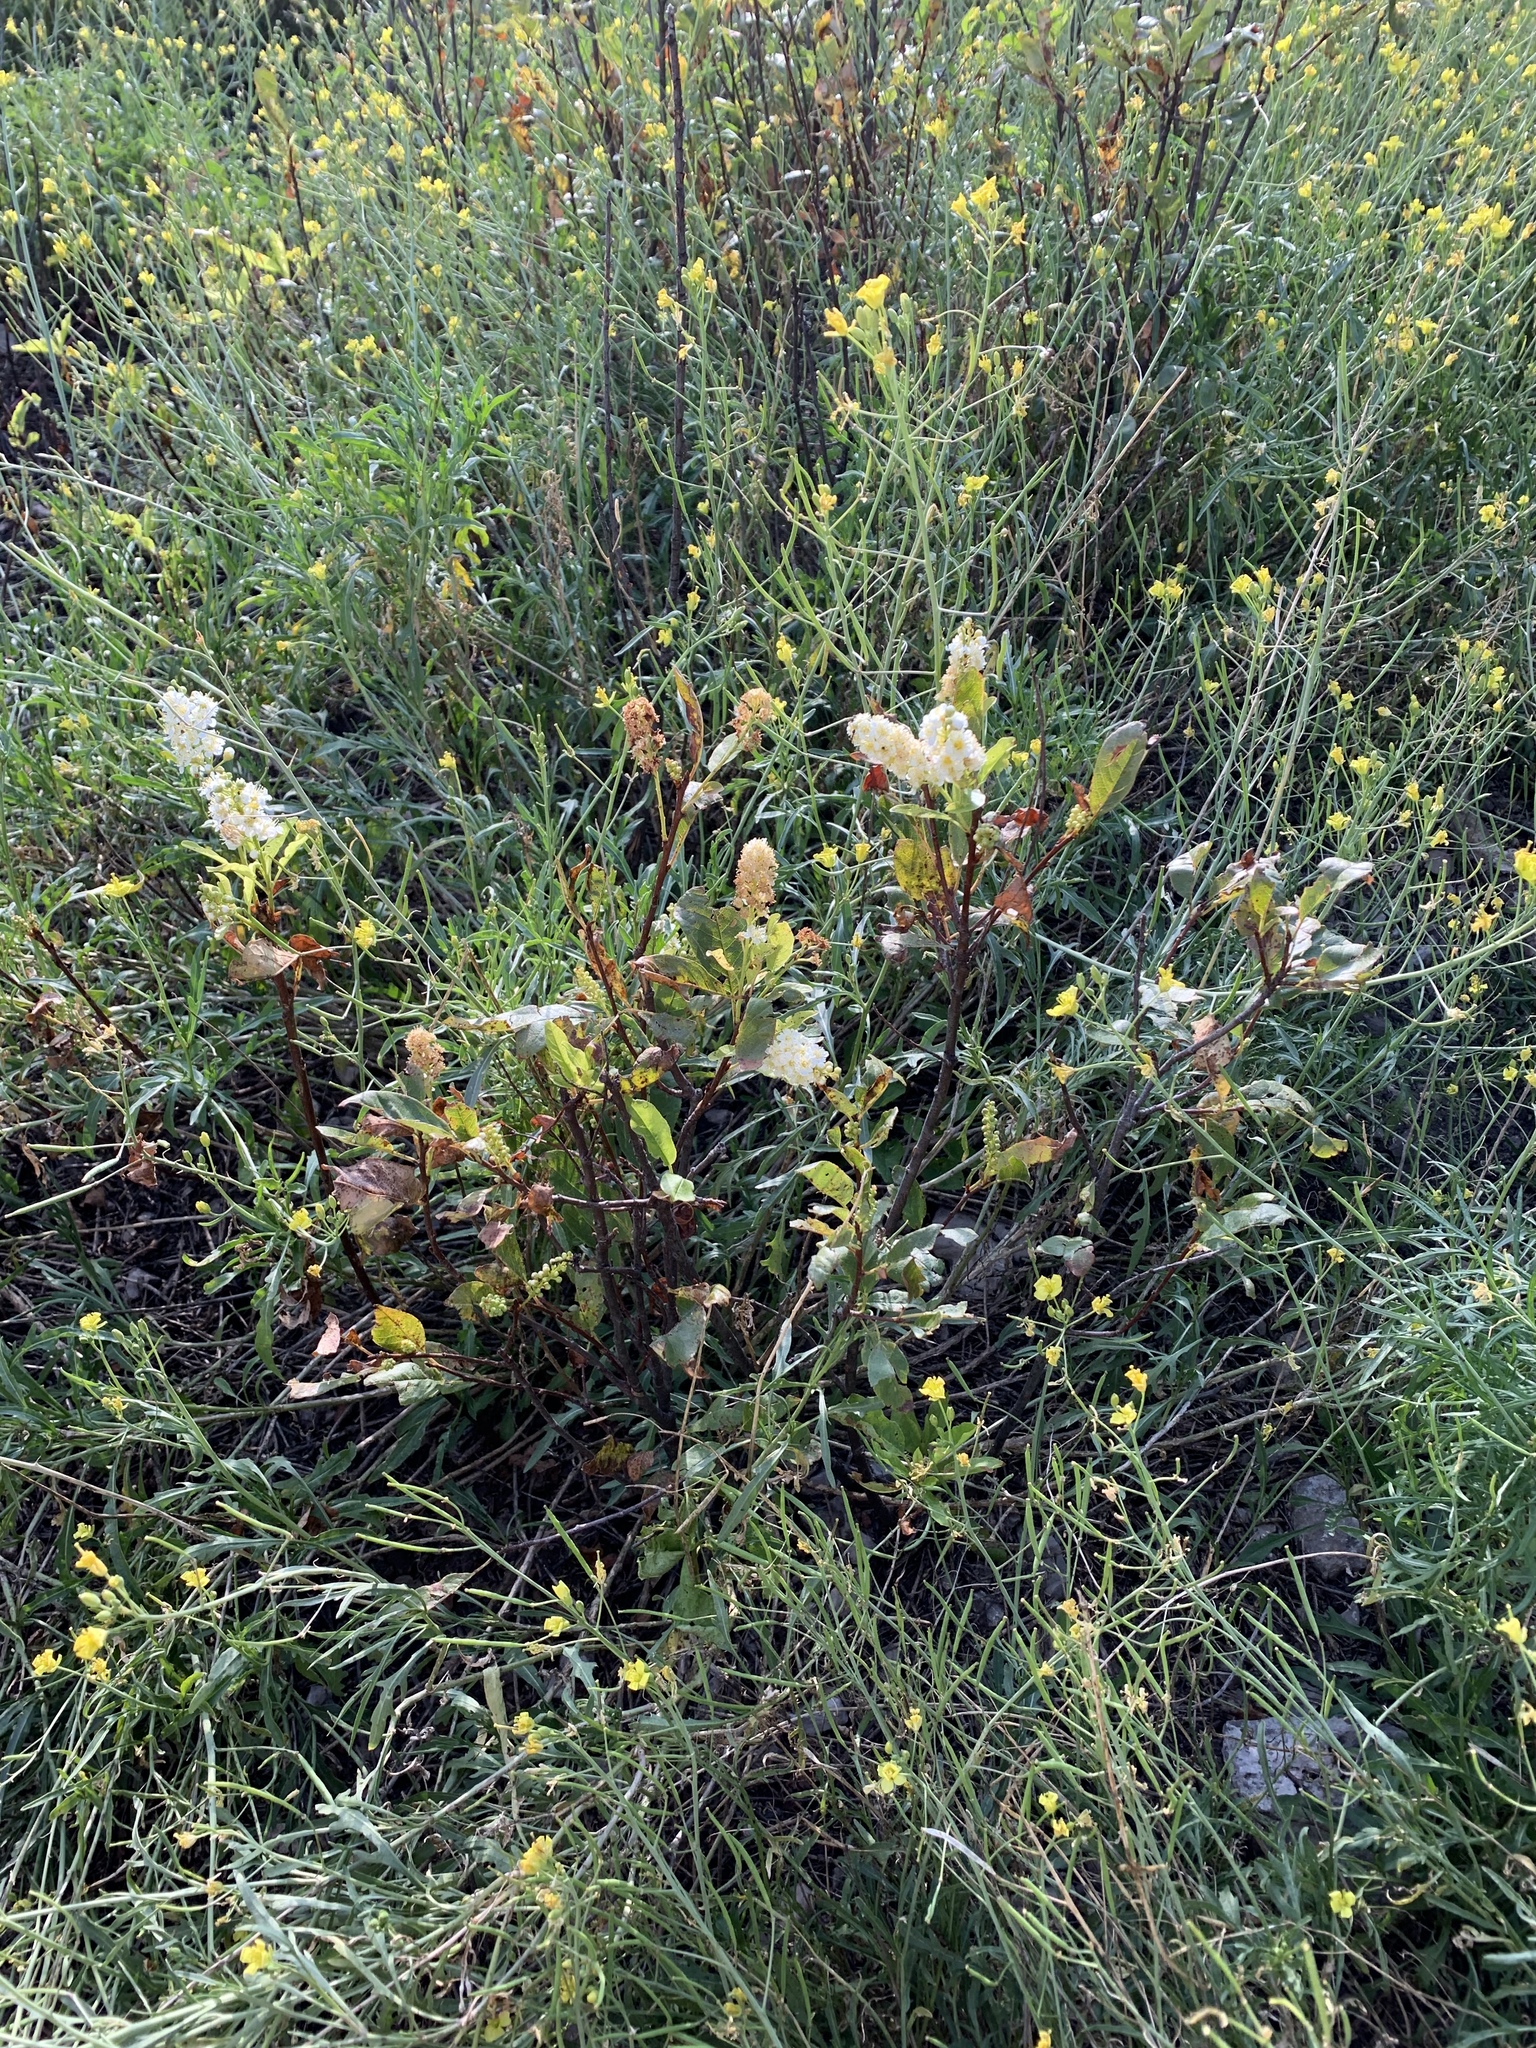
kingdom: Plantae
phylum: Tracheophyta
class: Magnoliopsida
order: Rosales
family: Rosaceae
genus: Prunus
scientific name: Prunus virginiana
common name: Chokecherry
